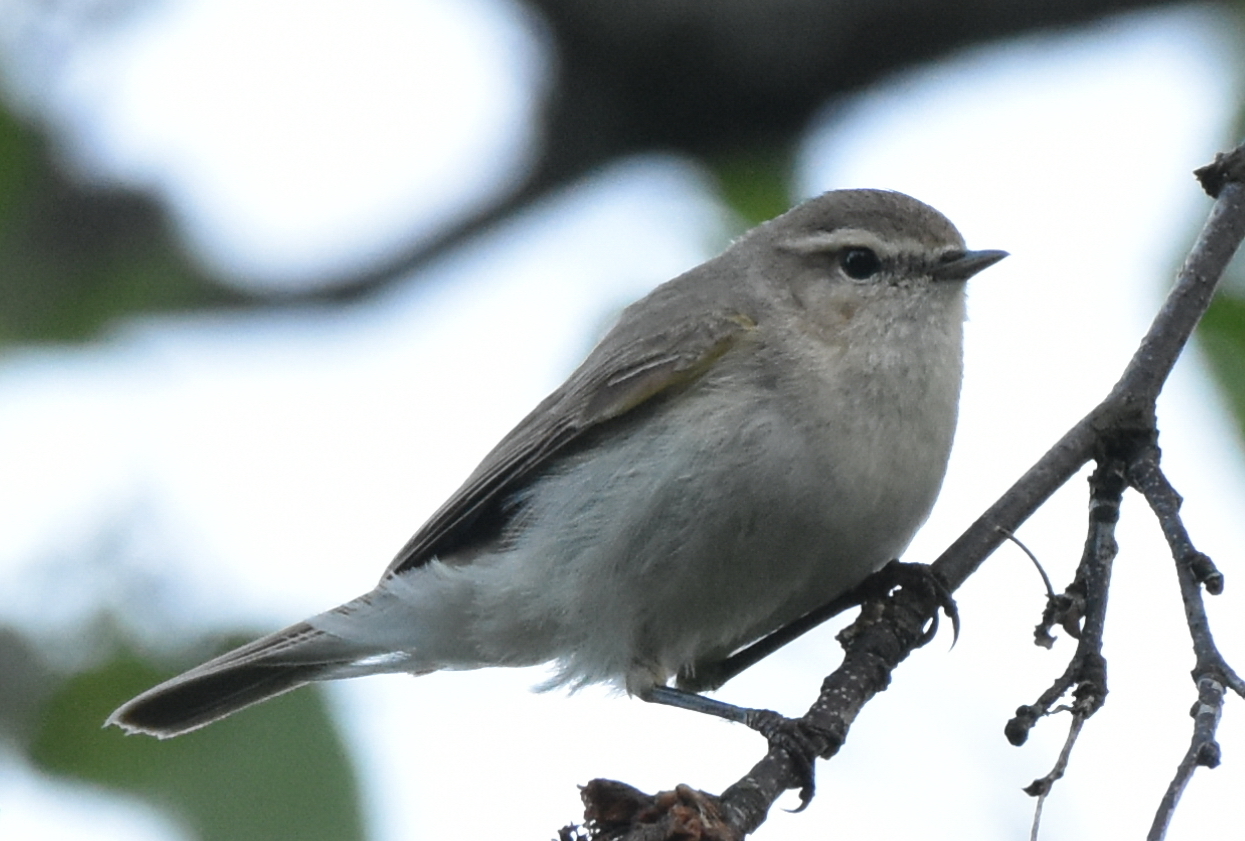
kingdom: Animalia
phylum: Chordata
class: Aves
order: Passeriformes
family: Phylloscopidae
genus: Phylloscopus
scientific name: Phylloscopus collybita
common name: Common chiffchaff
